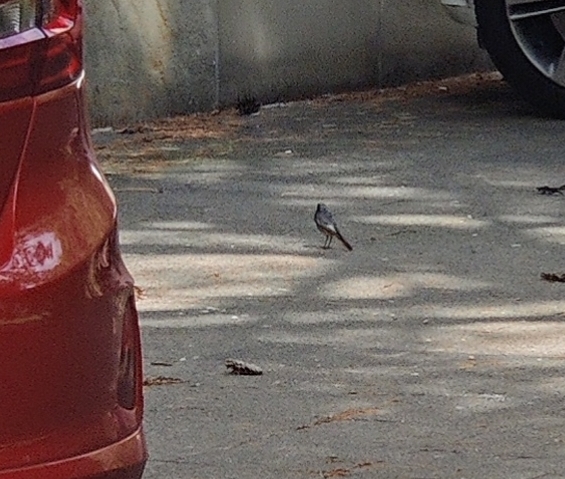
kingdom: Animalia
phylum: Chordata
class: Aves
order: Passeriformes
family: Muscicapidae
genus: Phoenicurus
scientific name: Phoenicurus ochruros
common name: Black redstart
